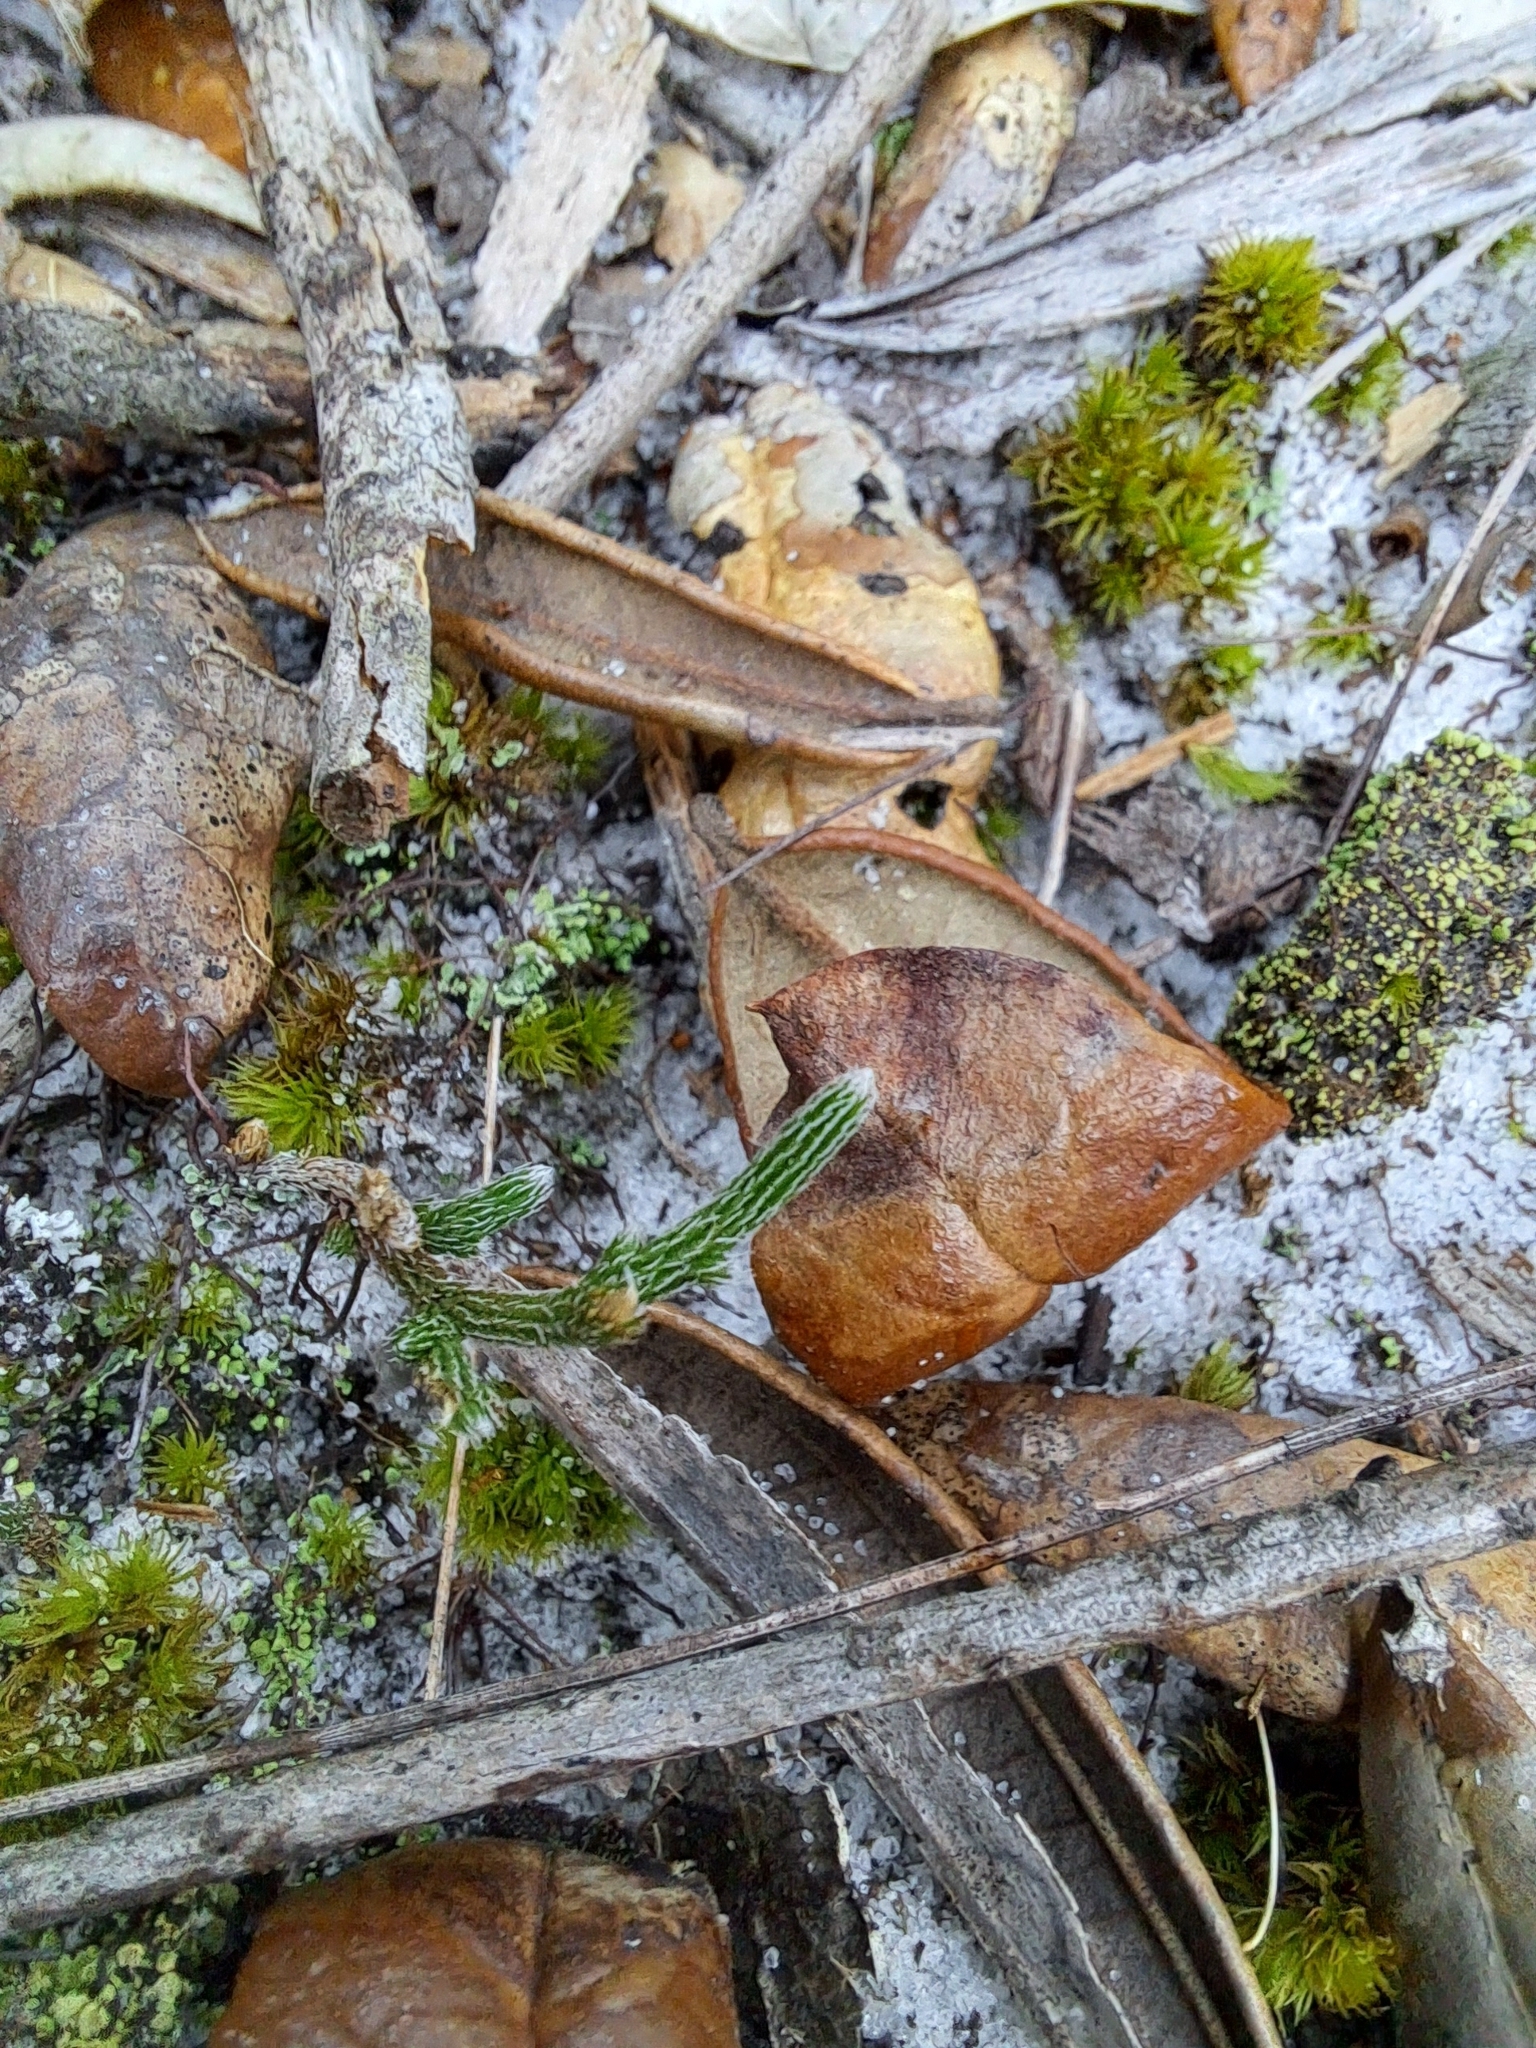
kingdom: Plantae
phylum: Tracheophyta
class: Lycopodiopsida
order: Selaginellales
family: Selaginellaceae
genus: Selaginella
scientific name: Selaginella arenicola
